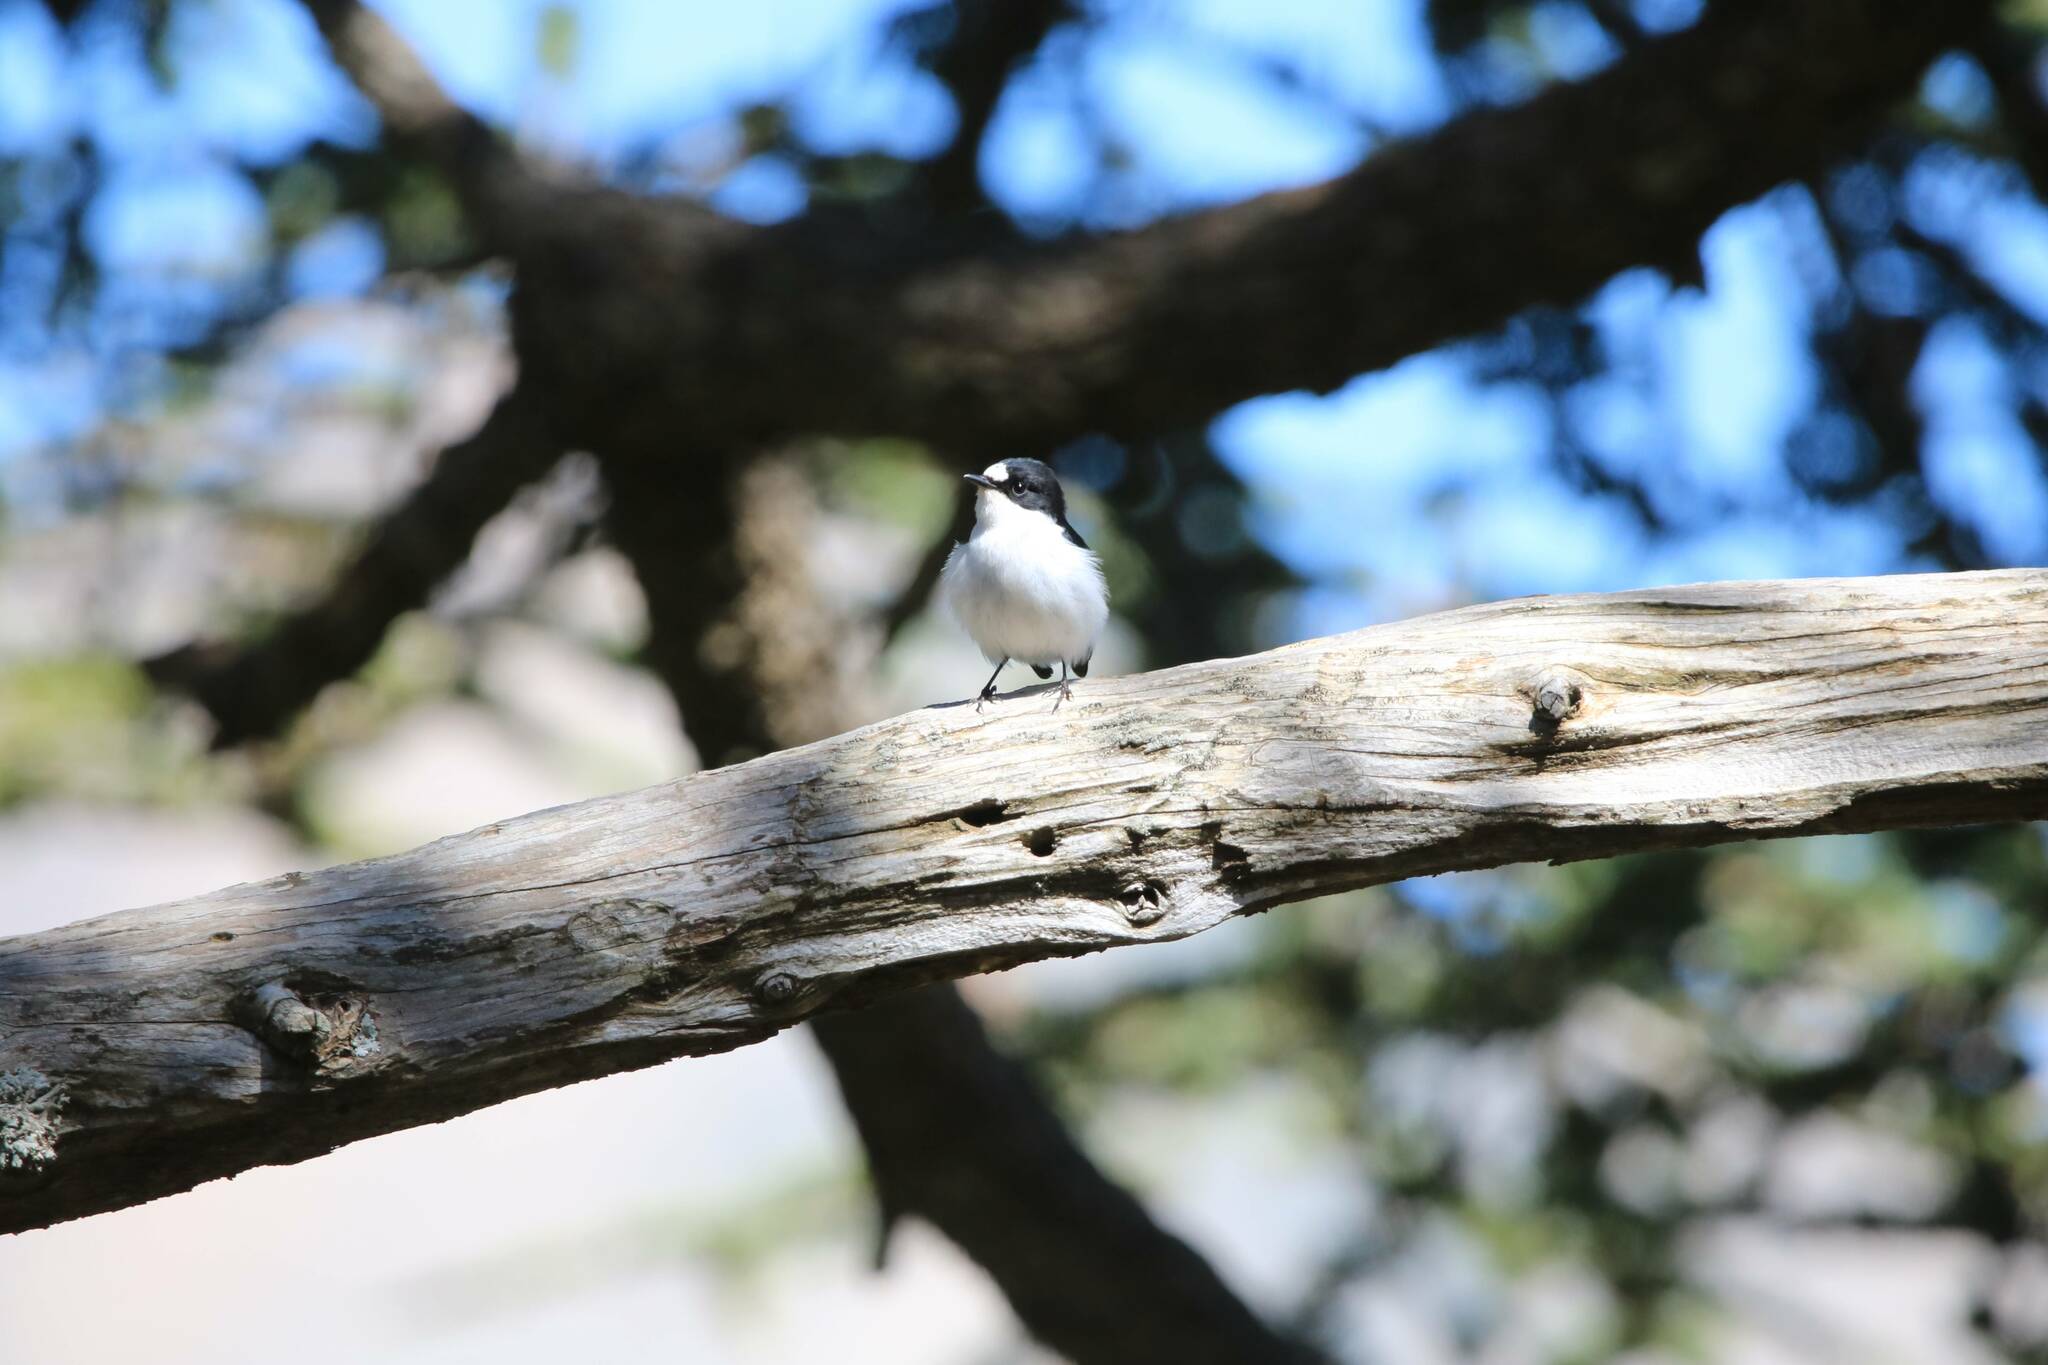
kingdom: Animalia
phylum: Chordata
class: Aves
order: Passeriformes
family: Muscicapidae
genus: Ficedula
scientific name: Ficedula speculigera
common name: Atlas pied flycatcher
